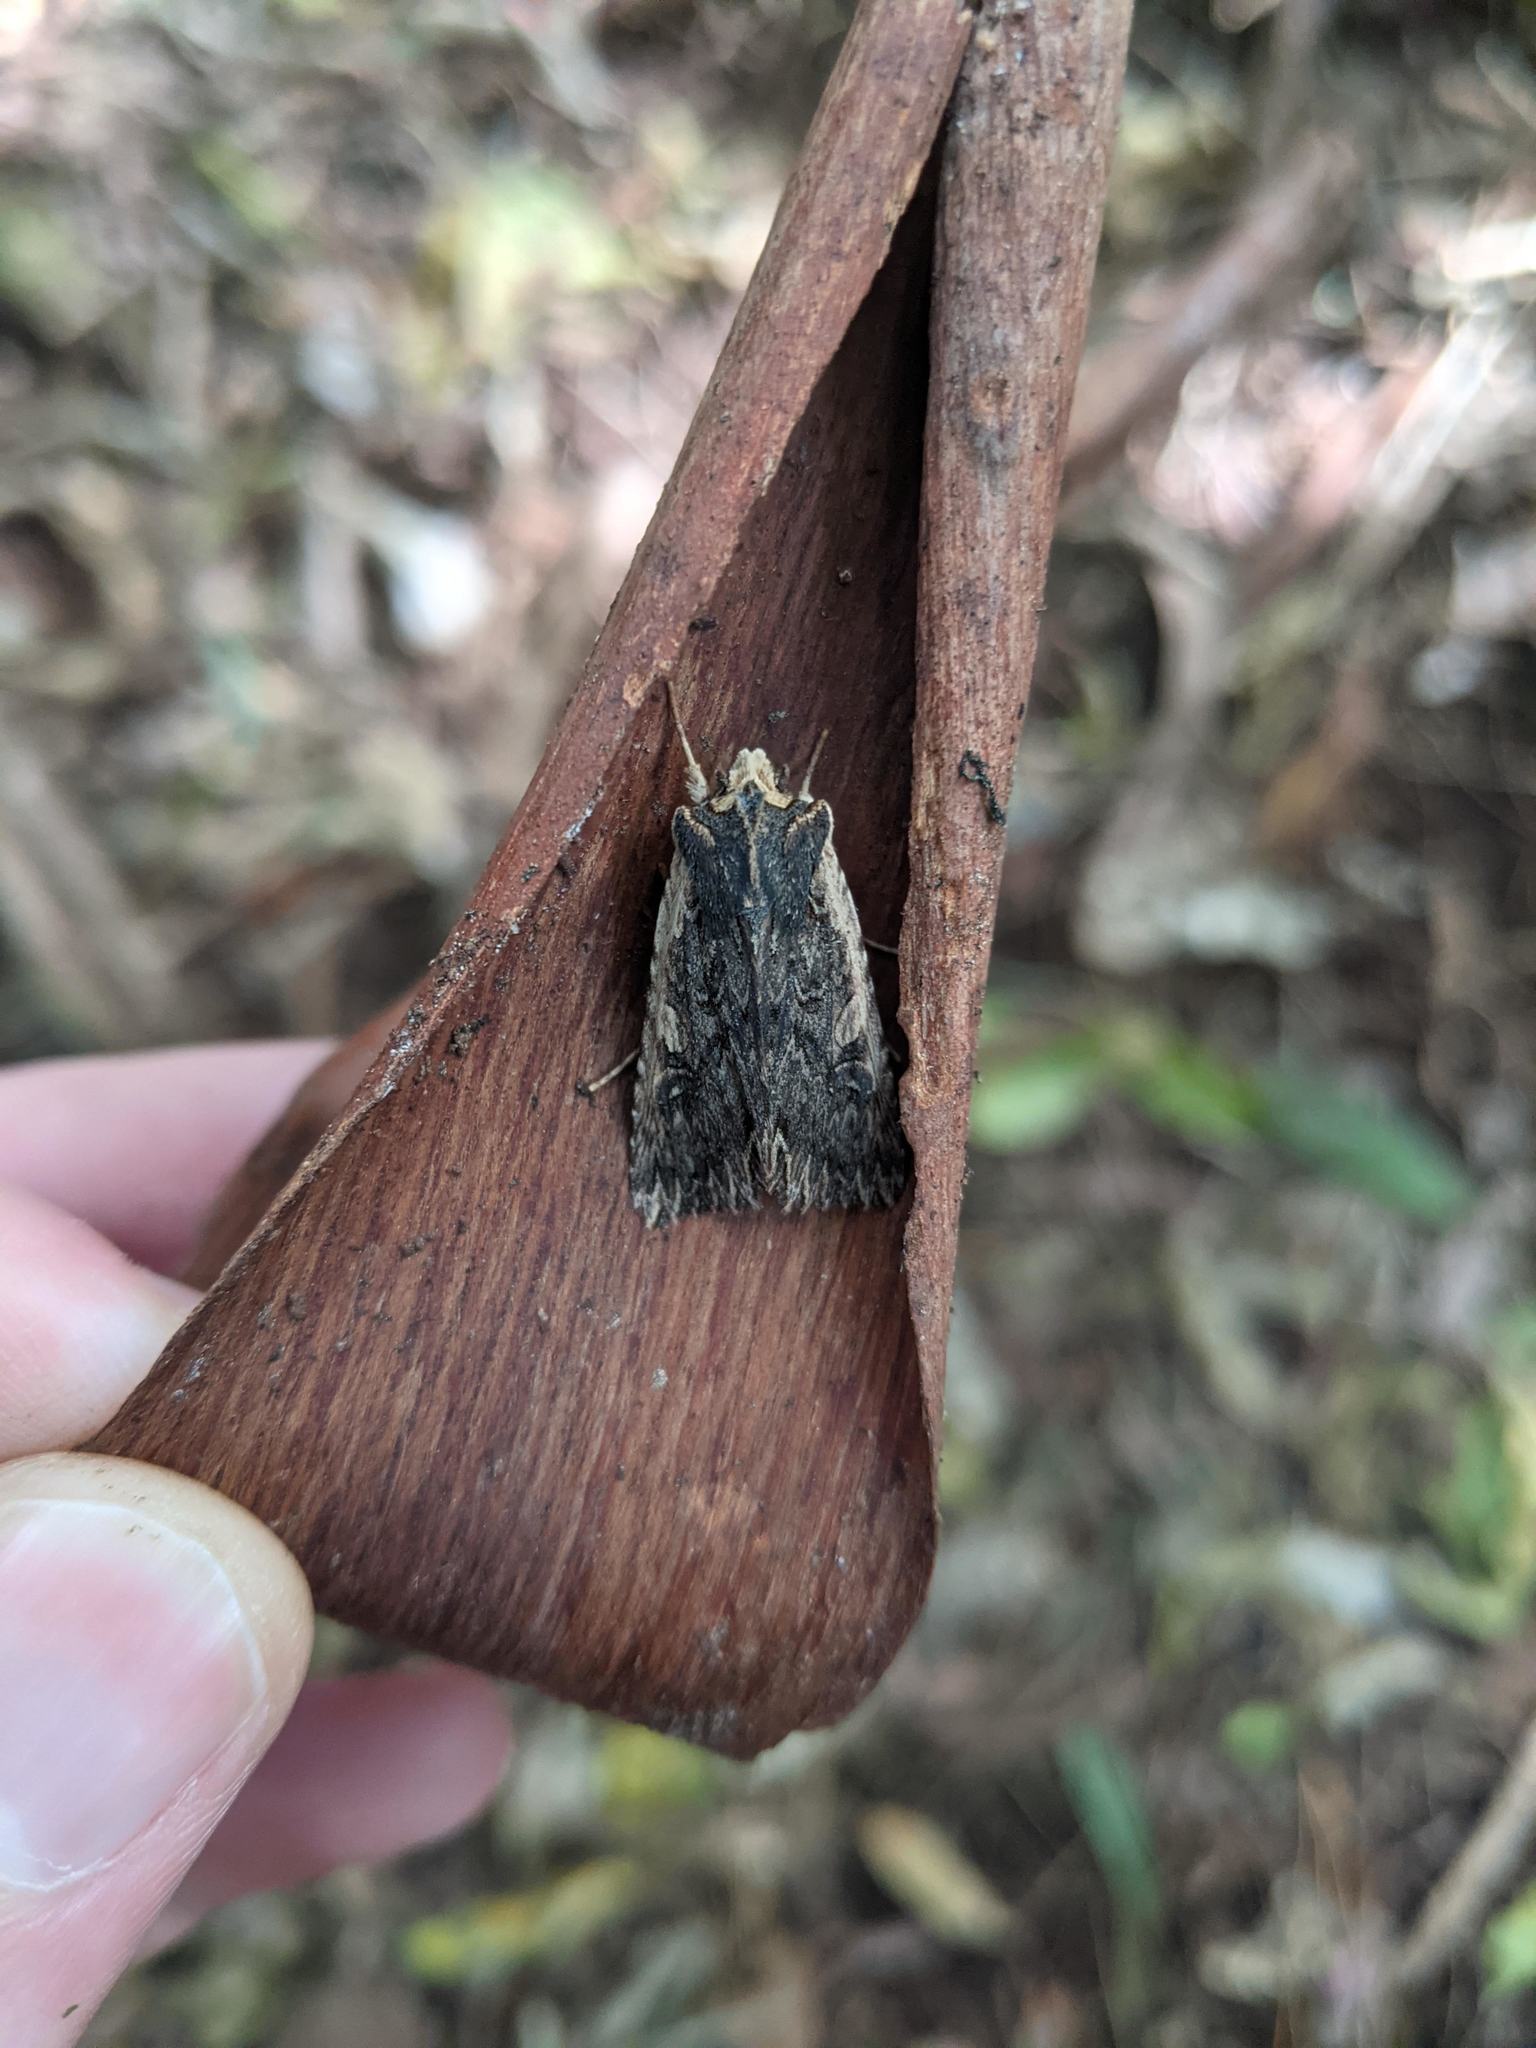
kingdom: Animalia
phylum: Arthropoda
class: Insecta
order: Lepidoptera
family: Noctuidae
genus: Meterana
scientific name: Meterana alcyone
